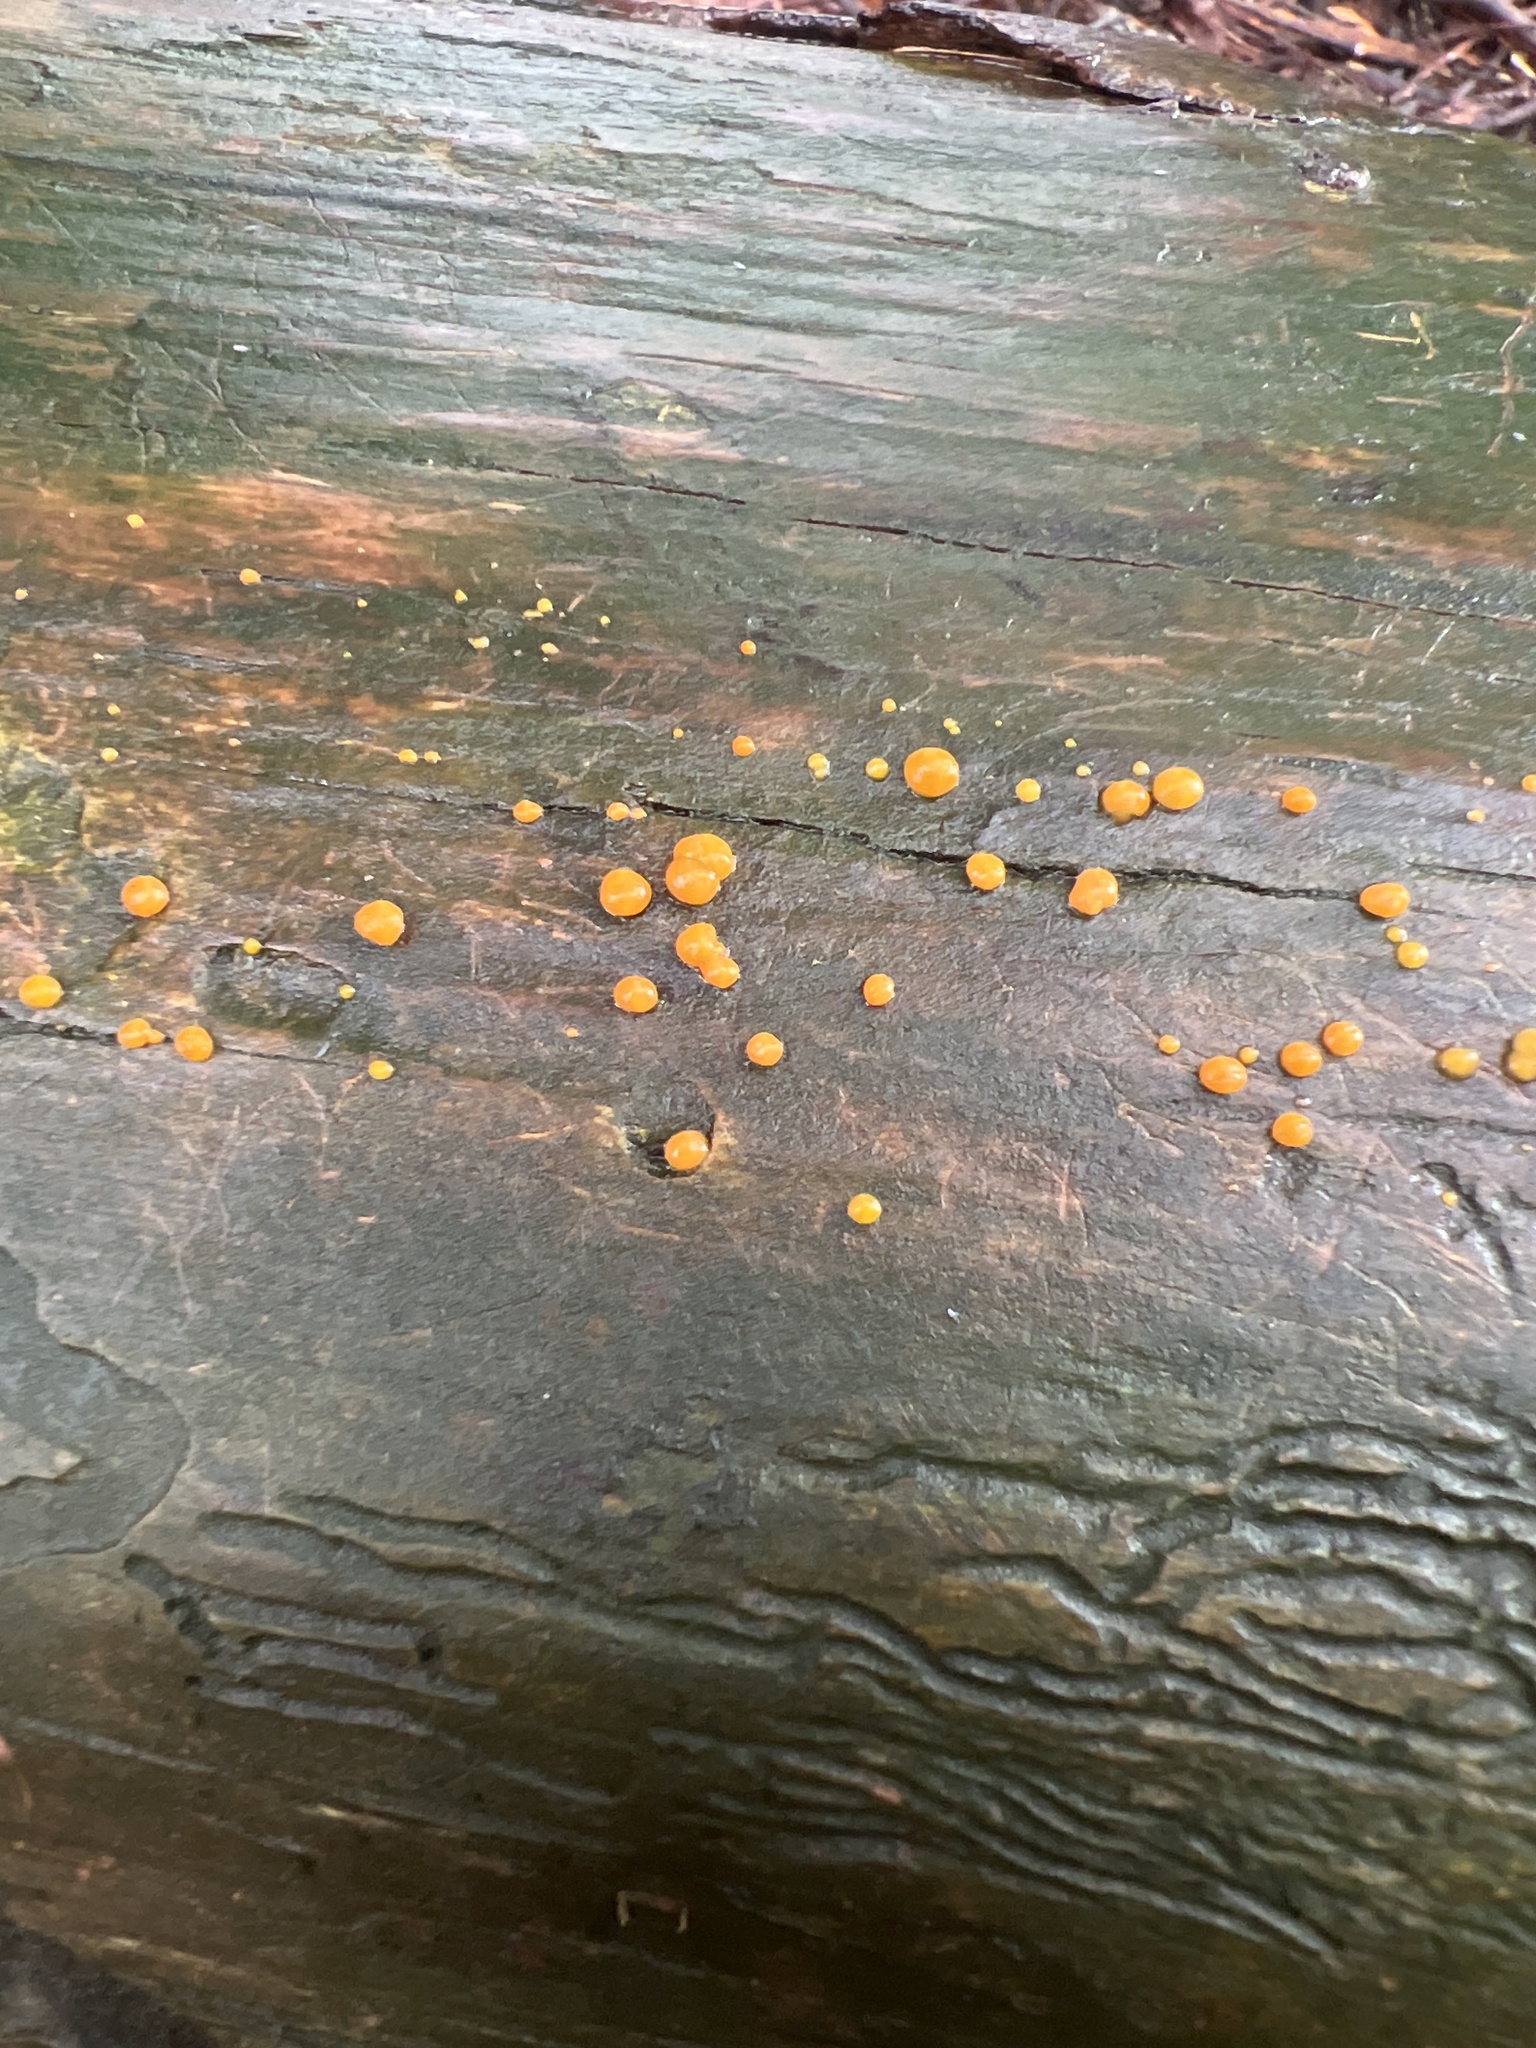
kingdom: Fungi
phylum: Basidiomycota
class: Dacrymycetes
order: Dacrymycetales
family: Dacrymycetaceae
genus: Dacrymyces
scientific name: Dacrymyces stillatus
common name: Common jelly spot
